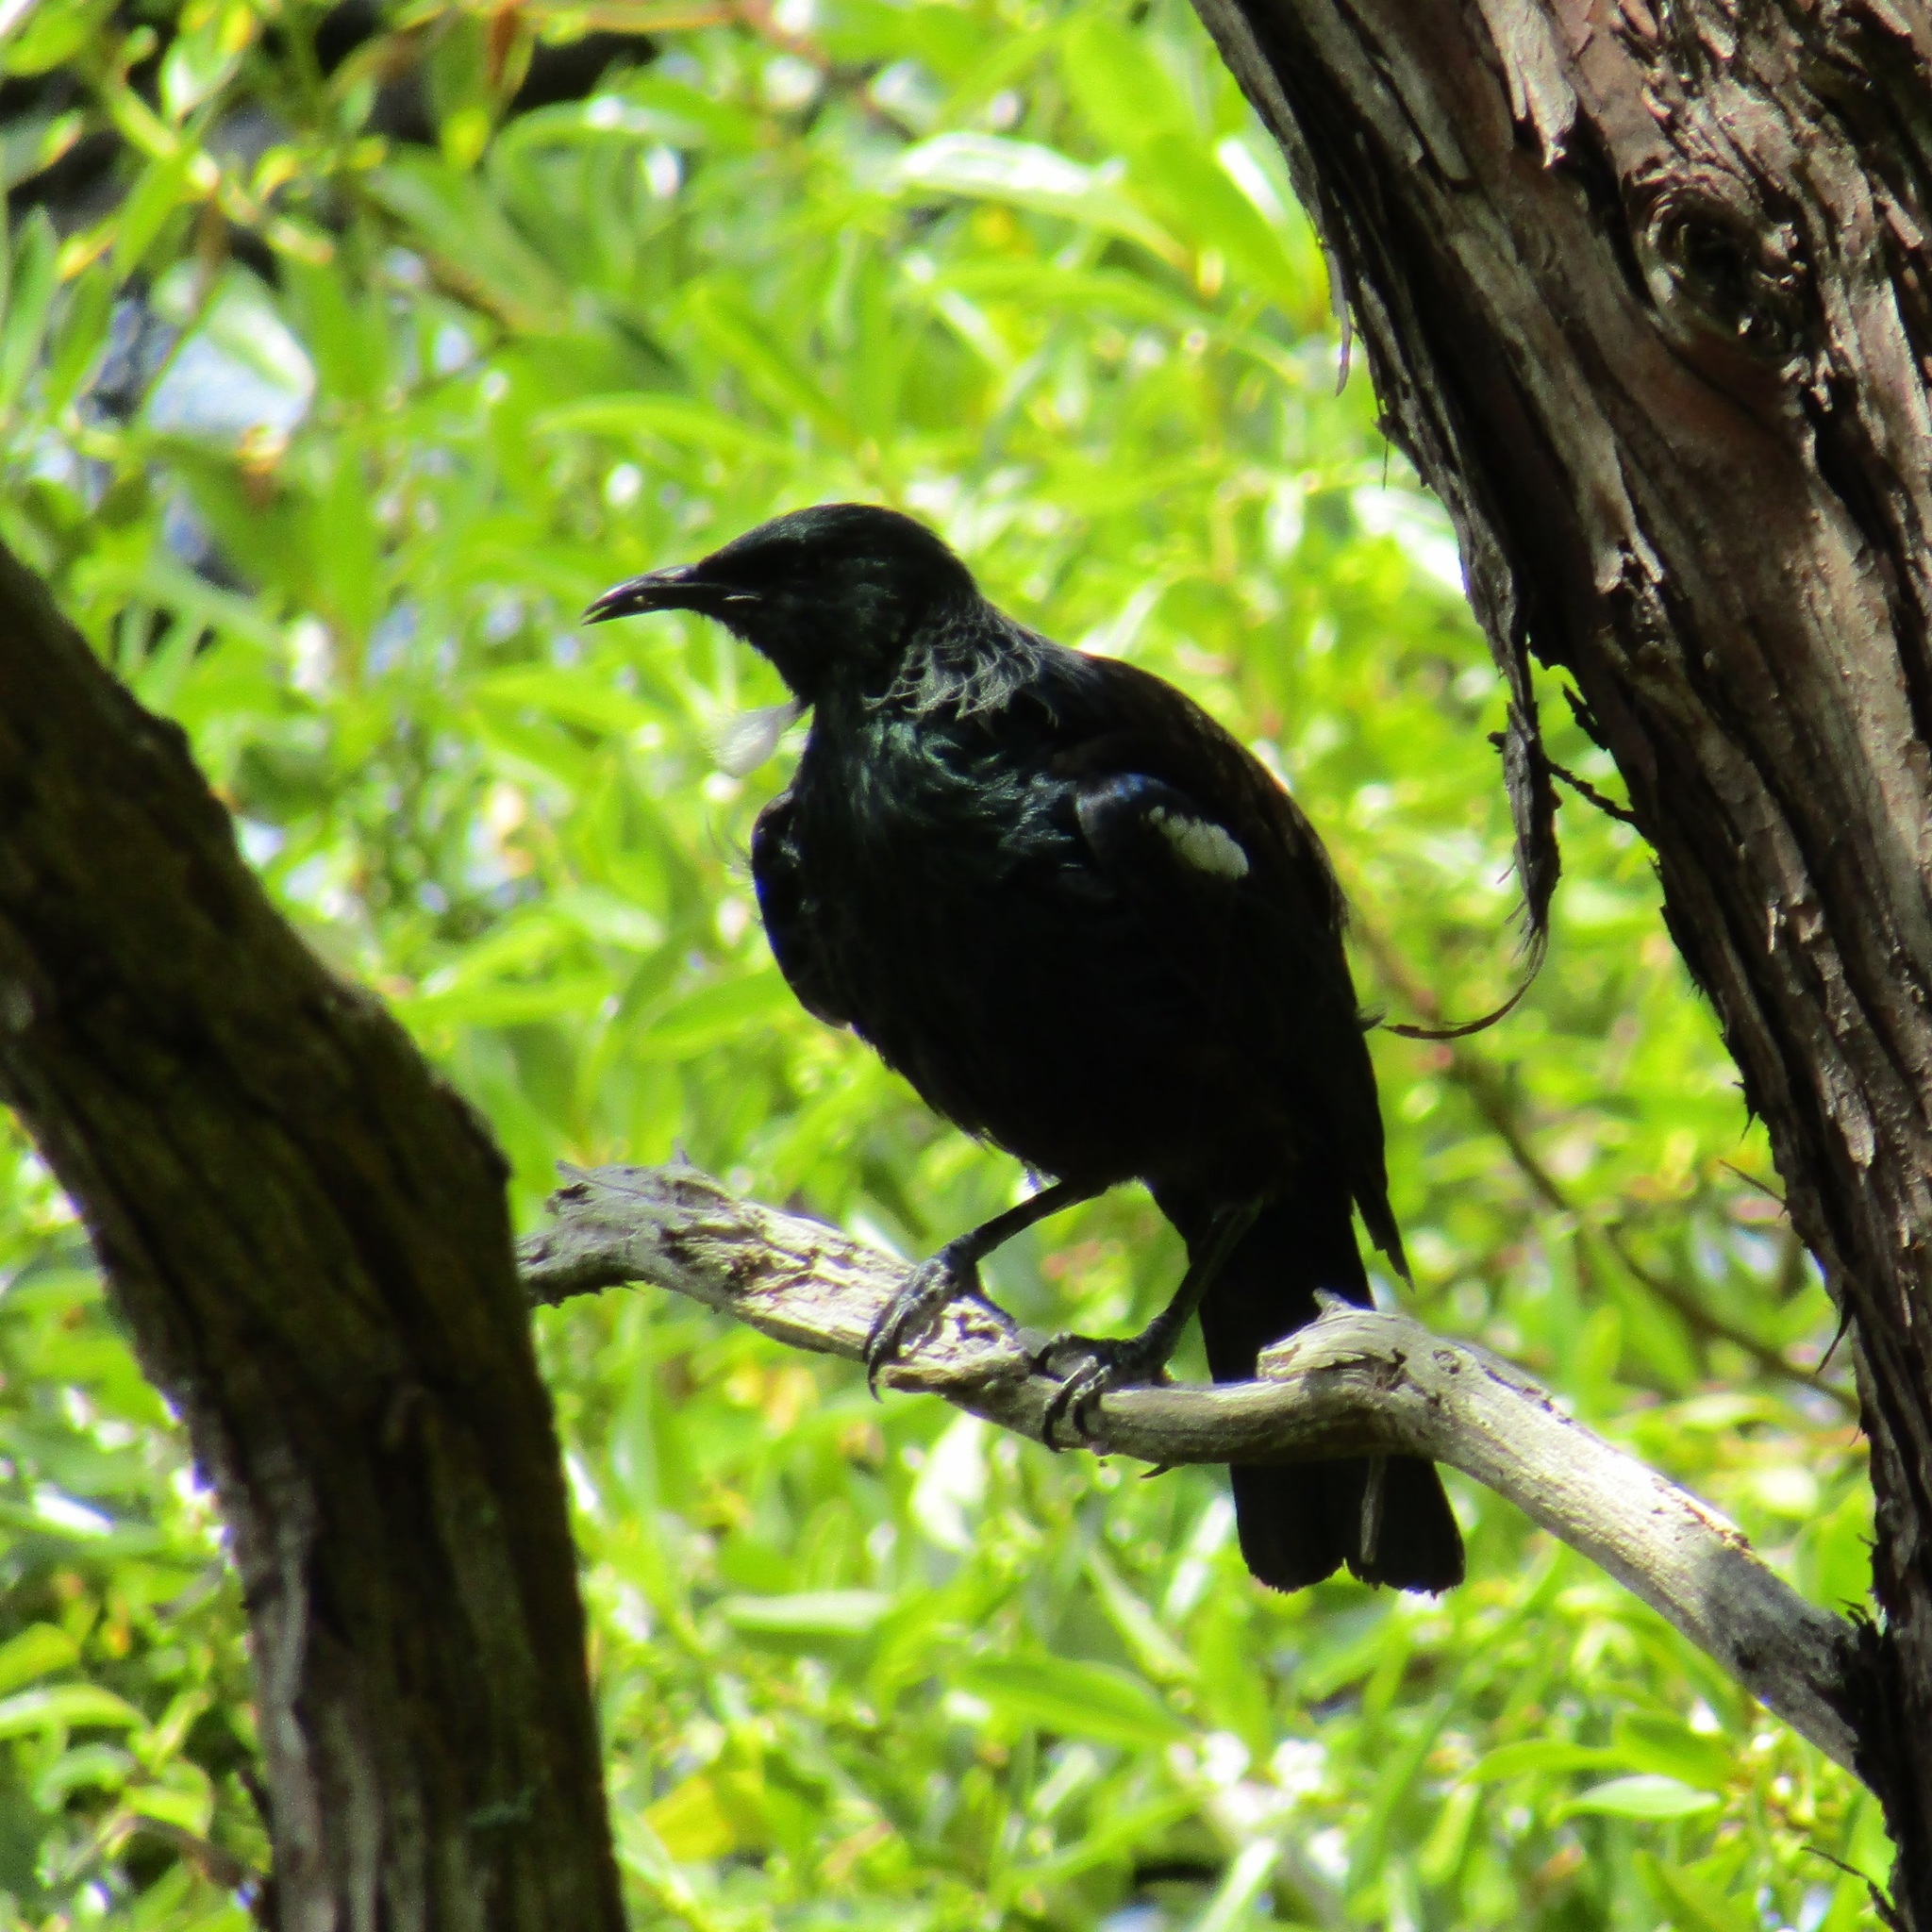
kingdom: Animalia
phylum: Chordata
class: Aves
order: Passeriformes
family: Meliphagidae
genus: Prosthemadera
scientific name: Prosthemadera novaeseelandiae
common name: Tui
